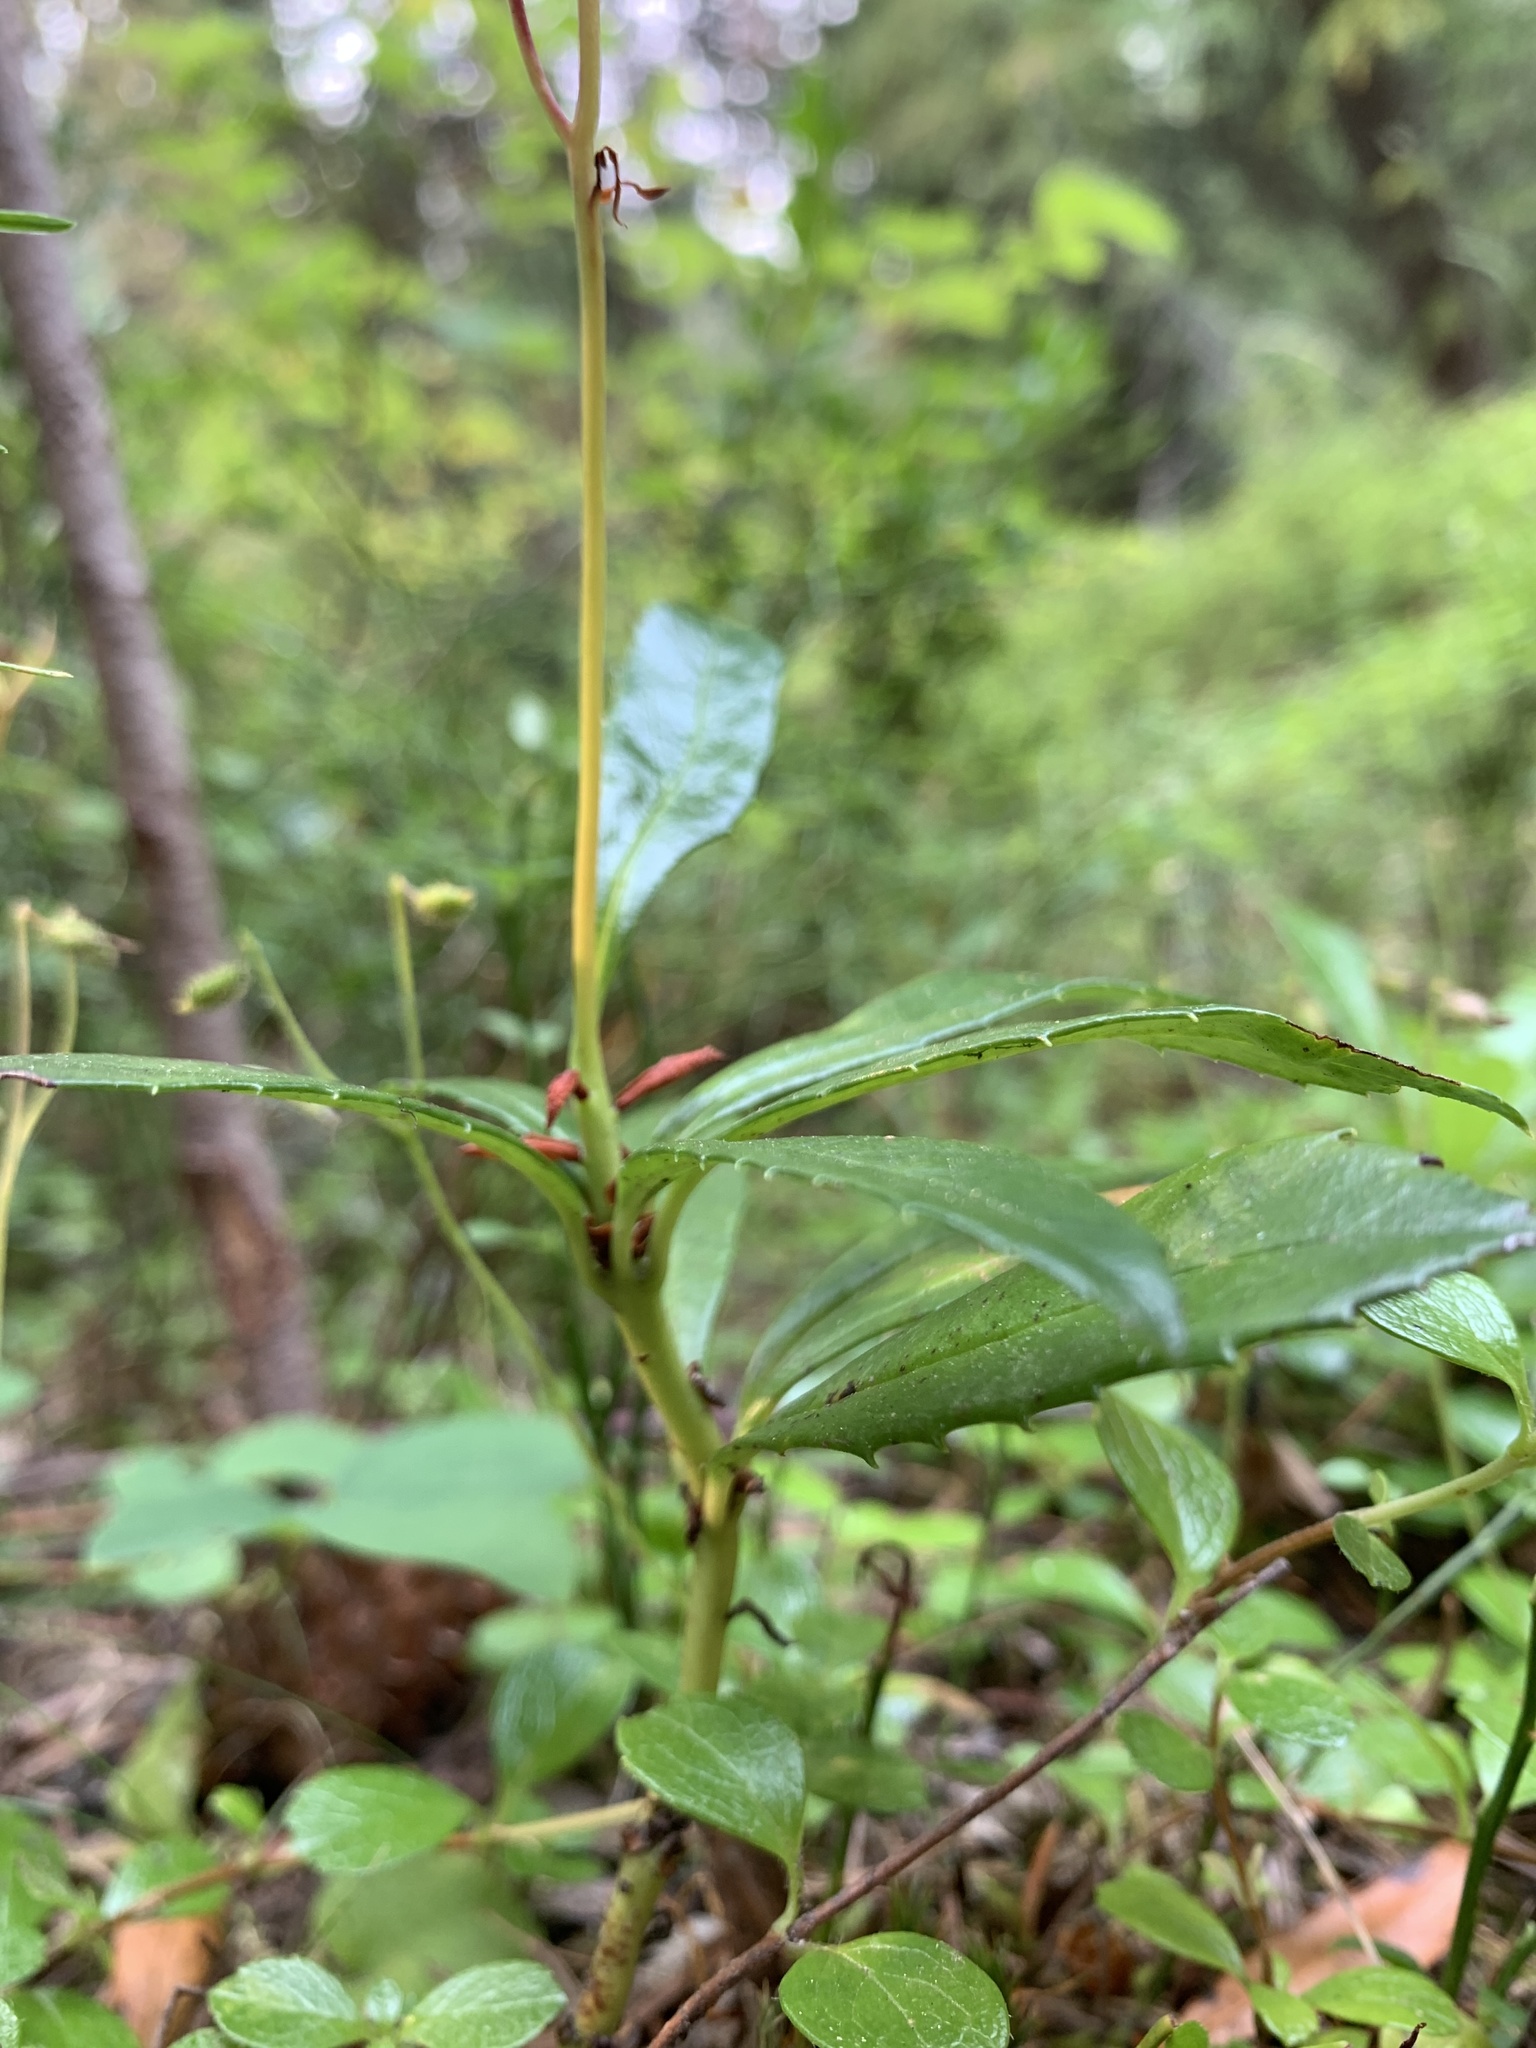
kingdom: Plantae
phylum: Tracheophyta
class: Magnoliopsida
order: Ericales
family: Ericaceae
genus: Chimaphila
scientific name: Chimaphila umbellata
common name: Pipsissewa
